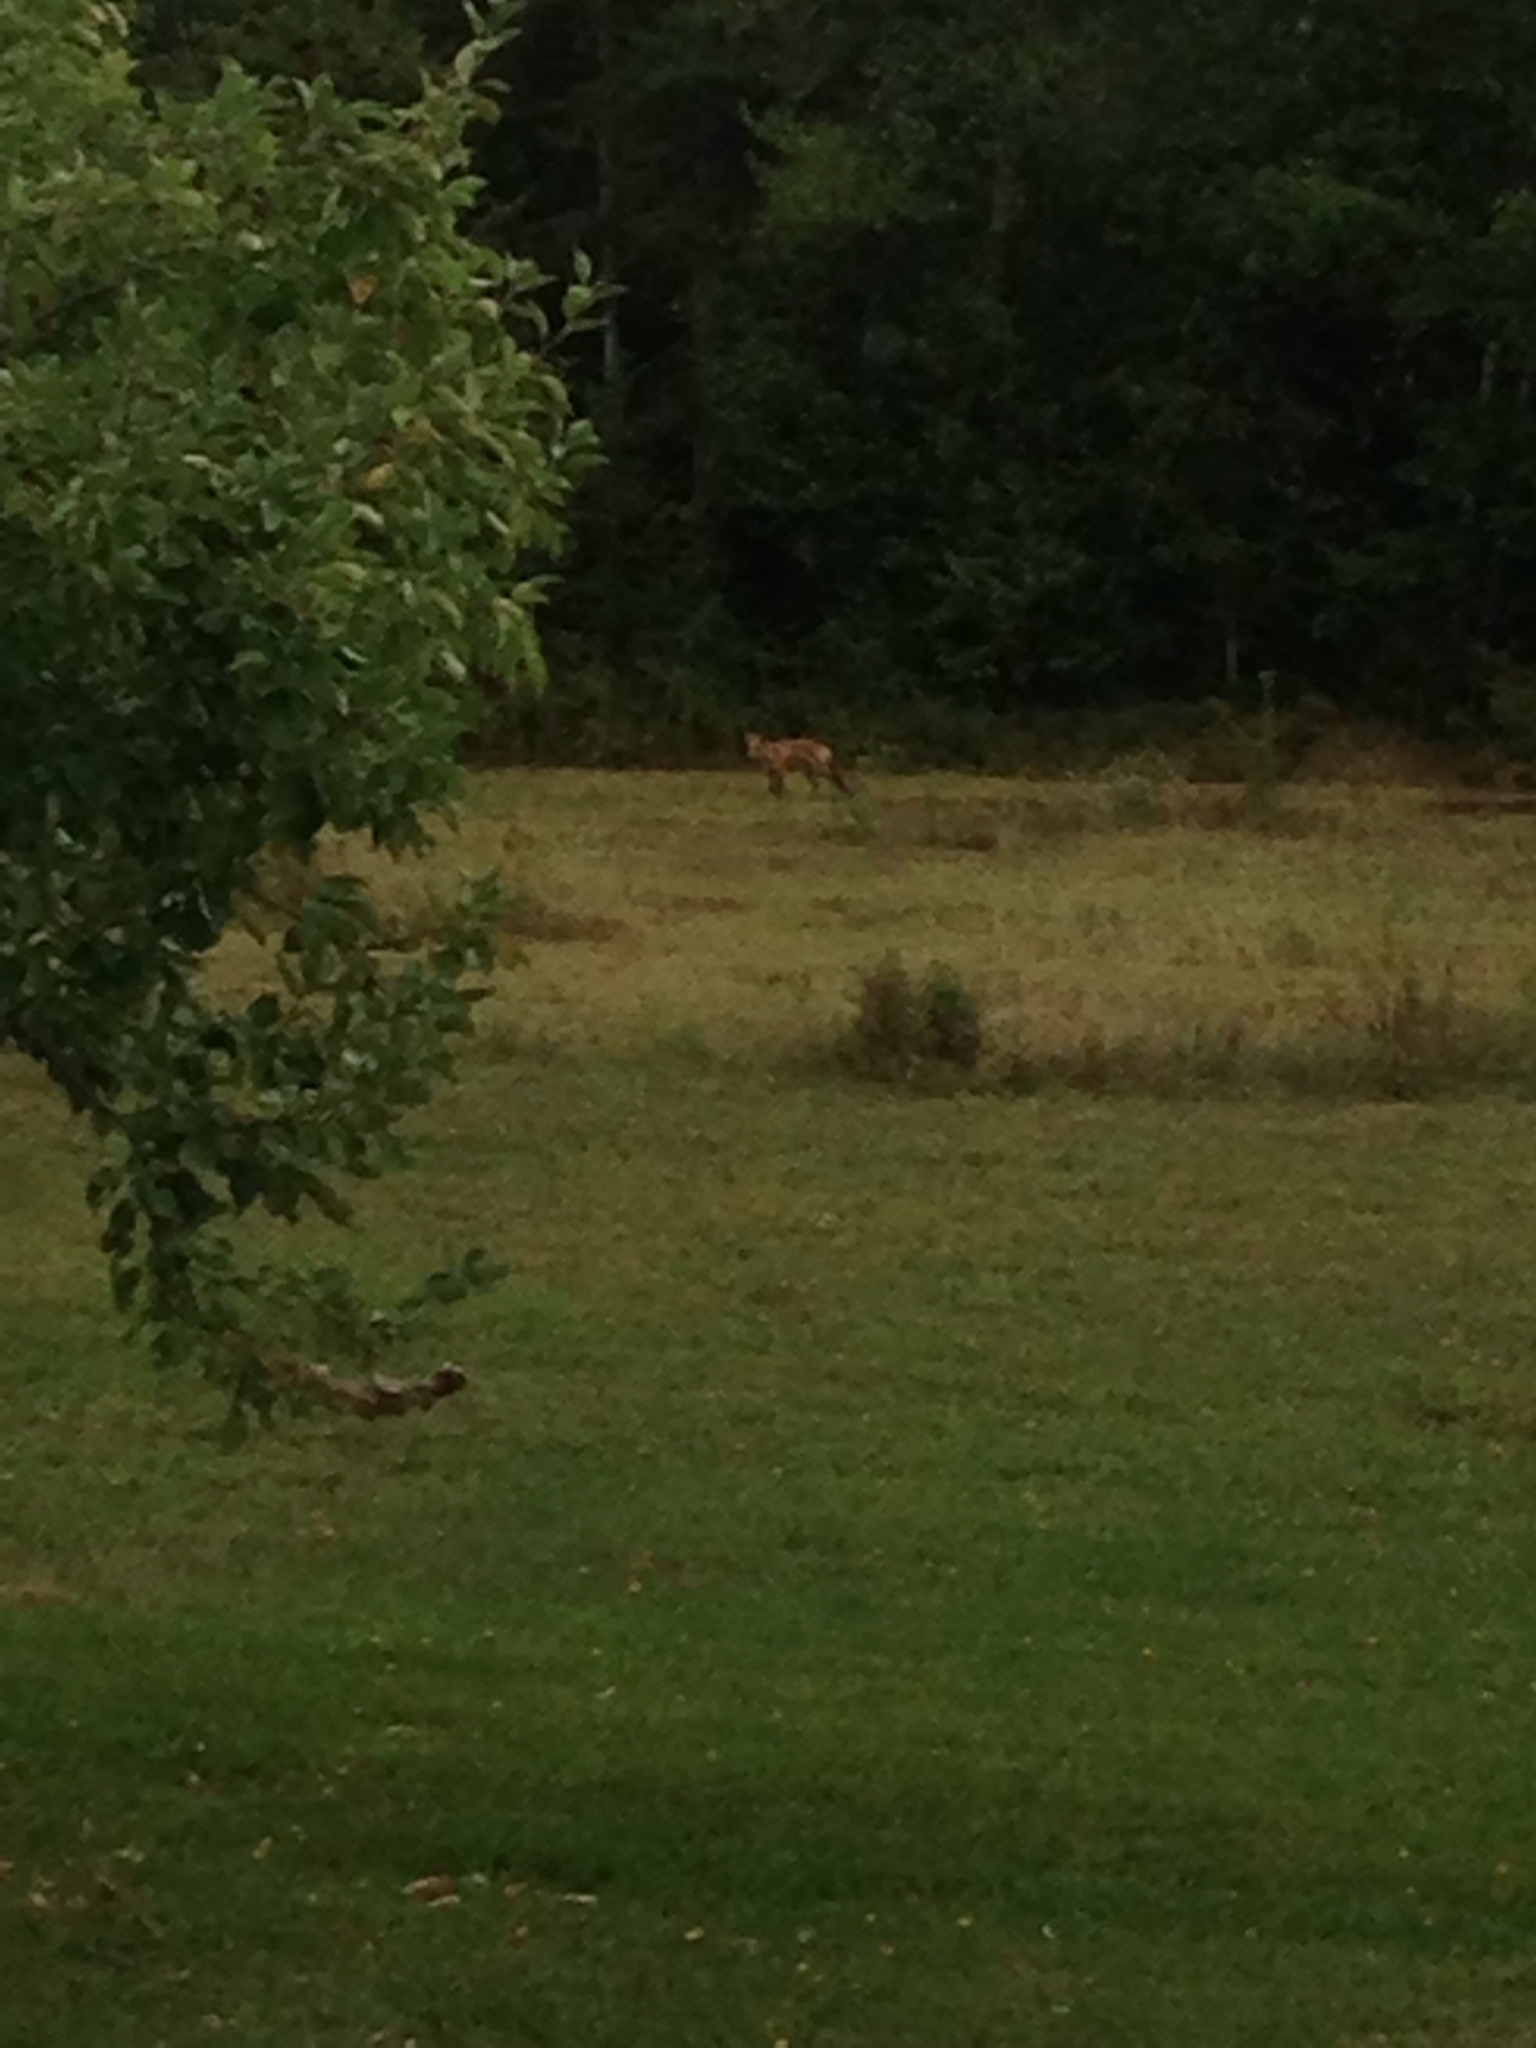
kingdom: Animalia
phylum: Chordata
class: Mammalia
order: Carnivora
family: Canidae
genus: Vulpes
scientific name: Vulpes vulpes
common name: Red fox
